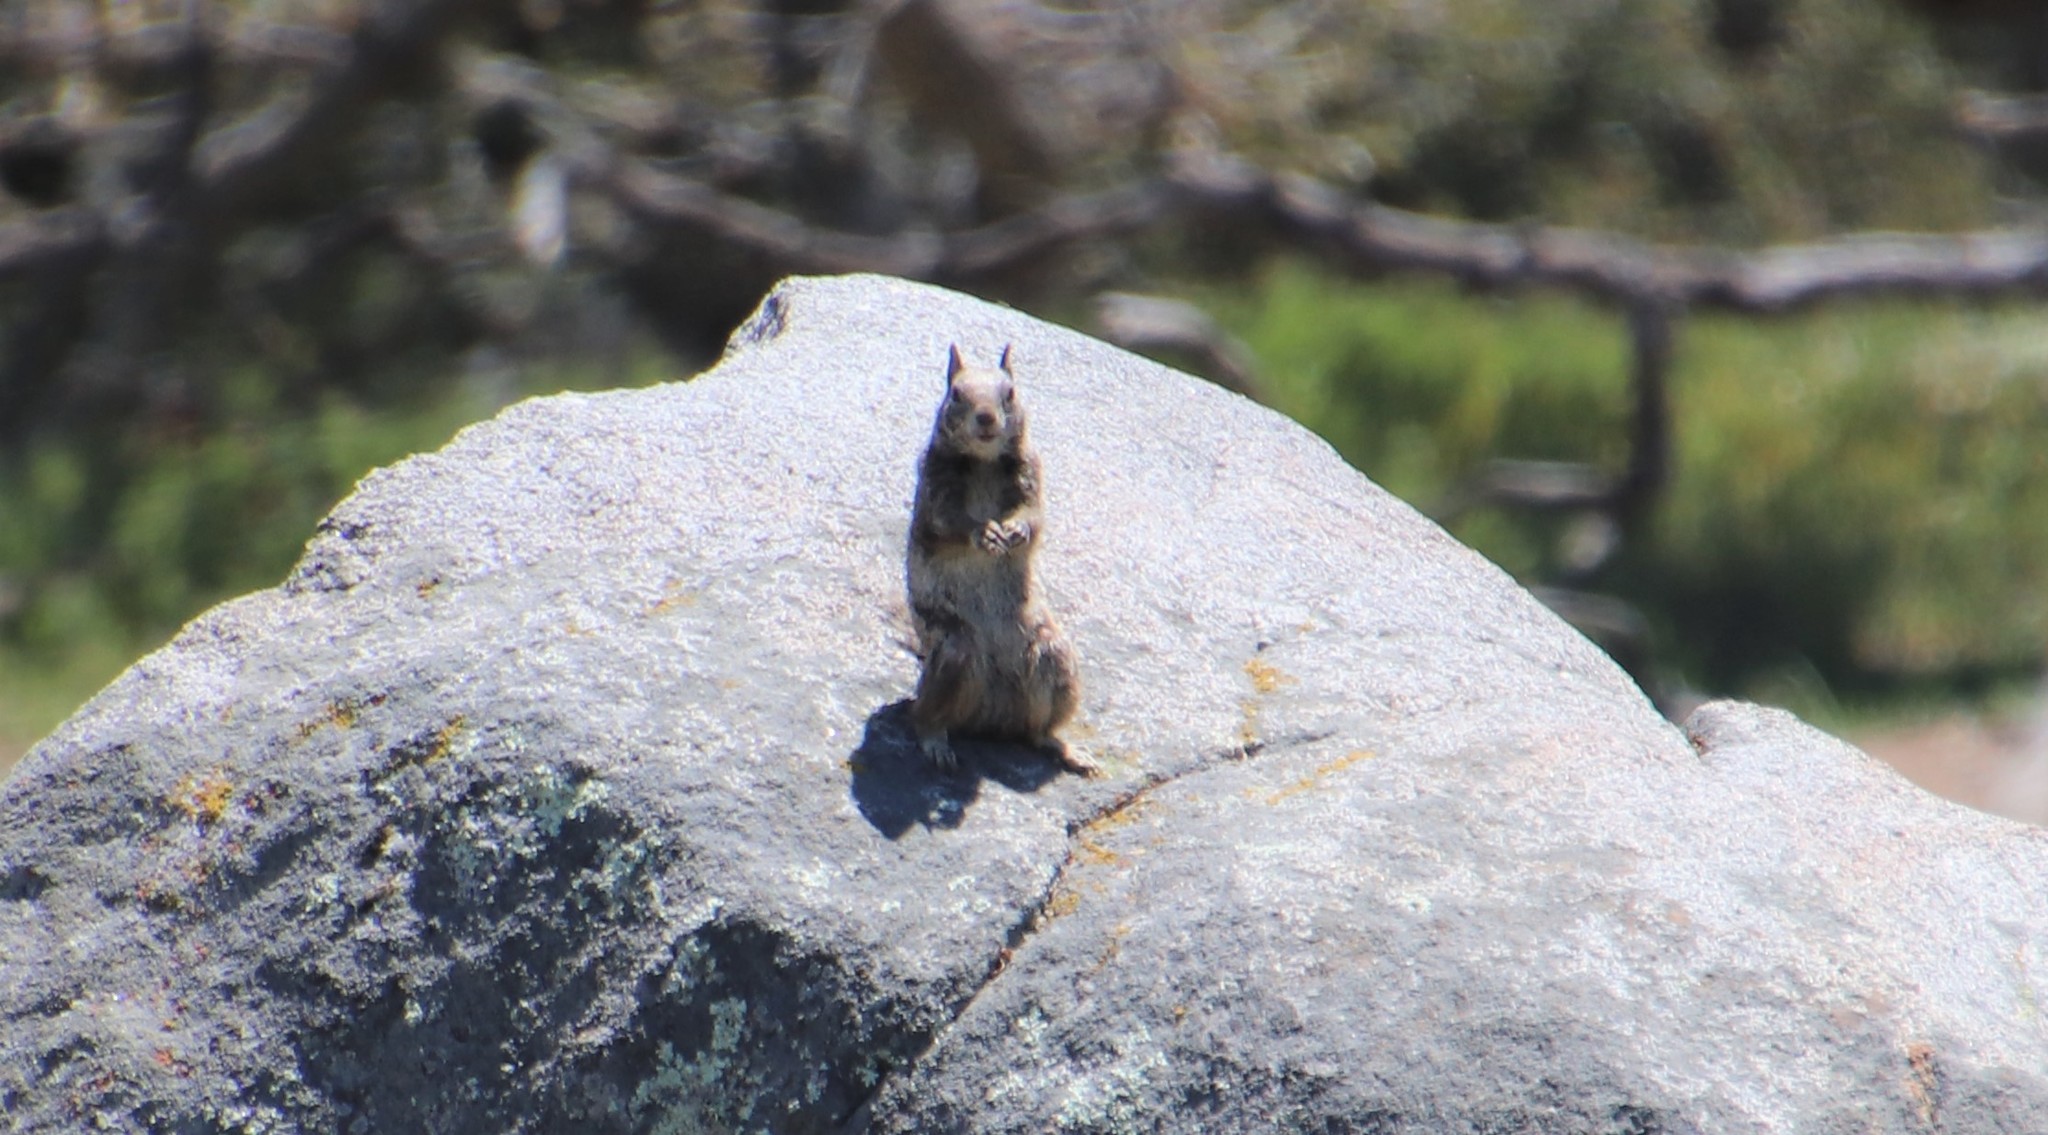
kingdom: Animalia
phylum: Chordata
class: Mammalia
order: Rodentia
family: Sciuridae
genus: Otospermophilus
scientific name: Otospermophilus beecheyi
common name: California ground squirrel
